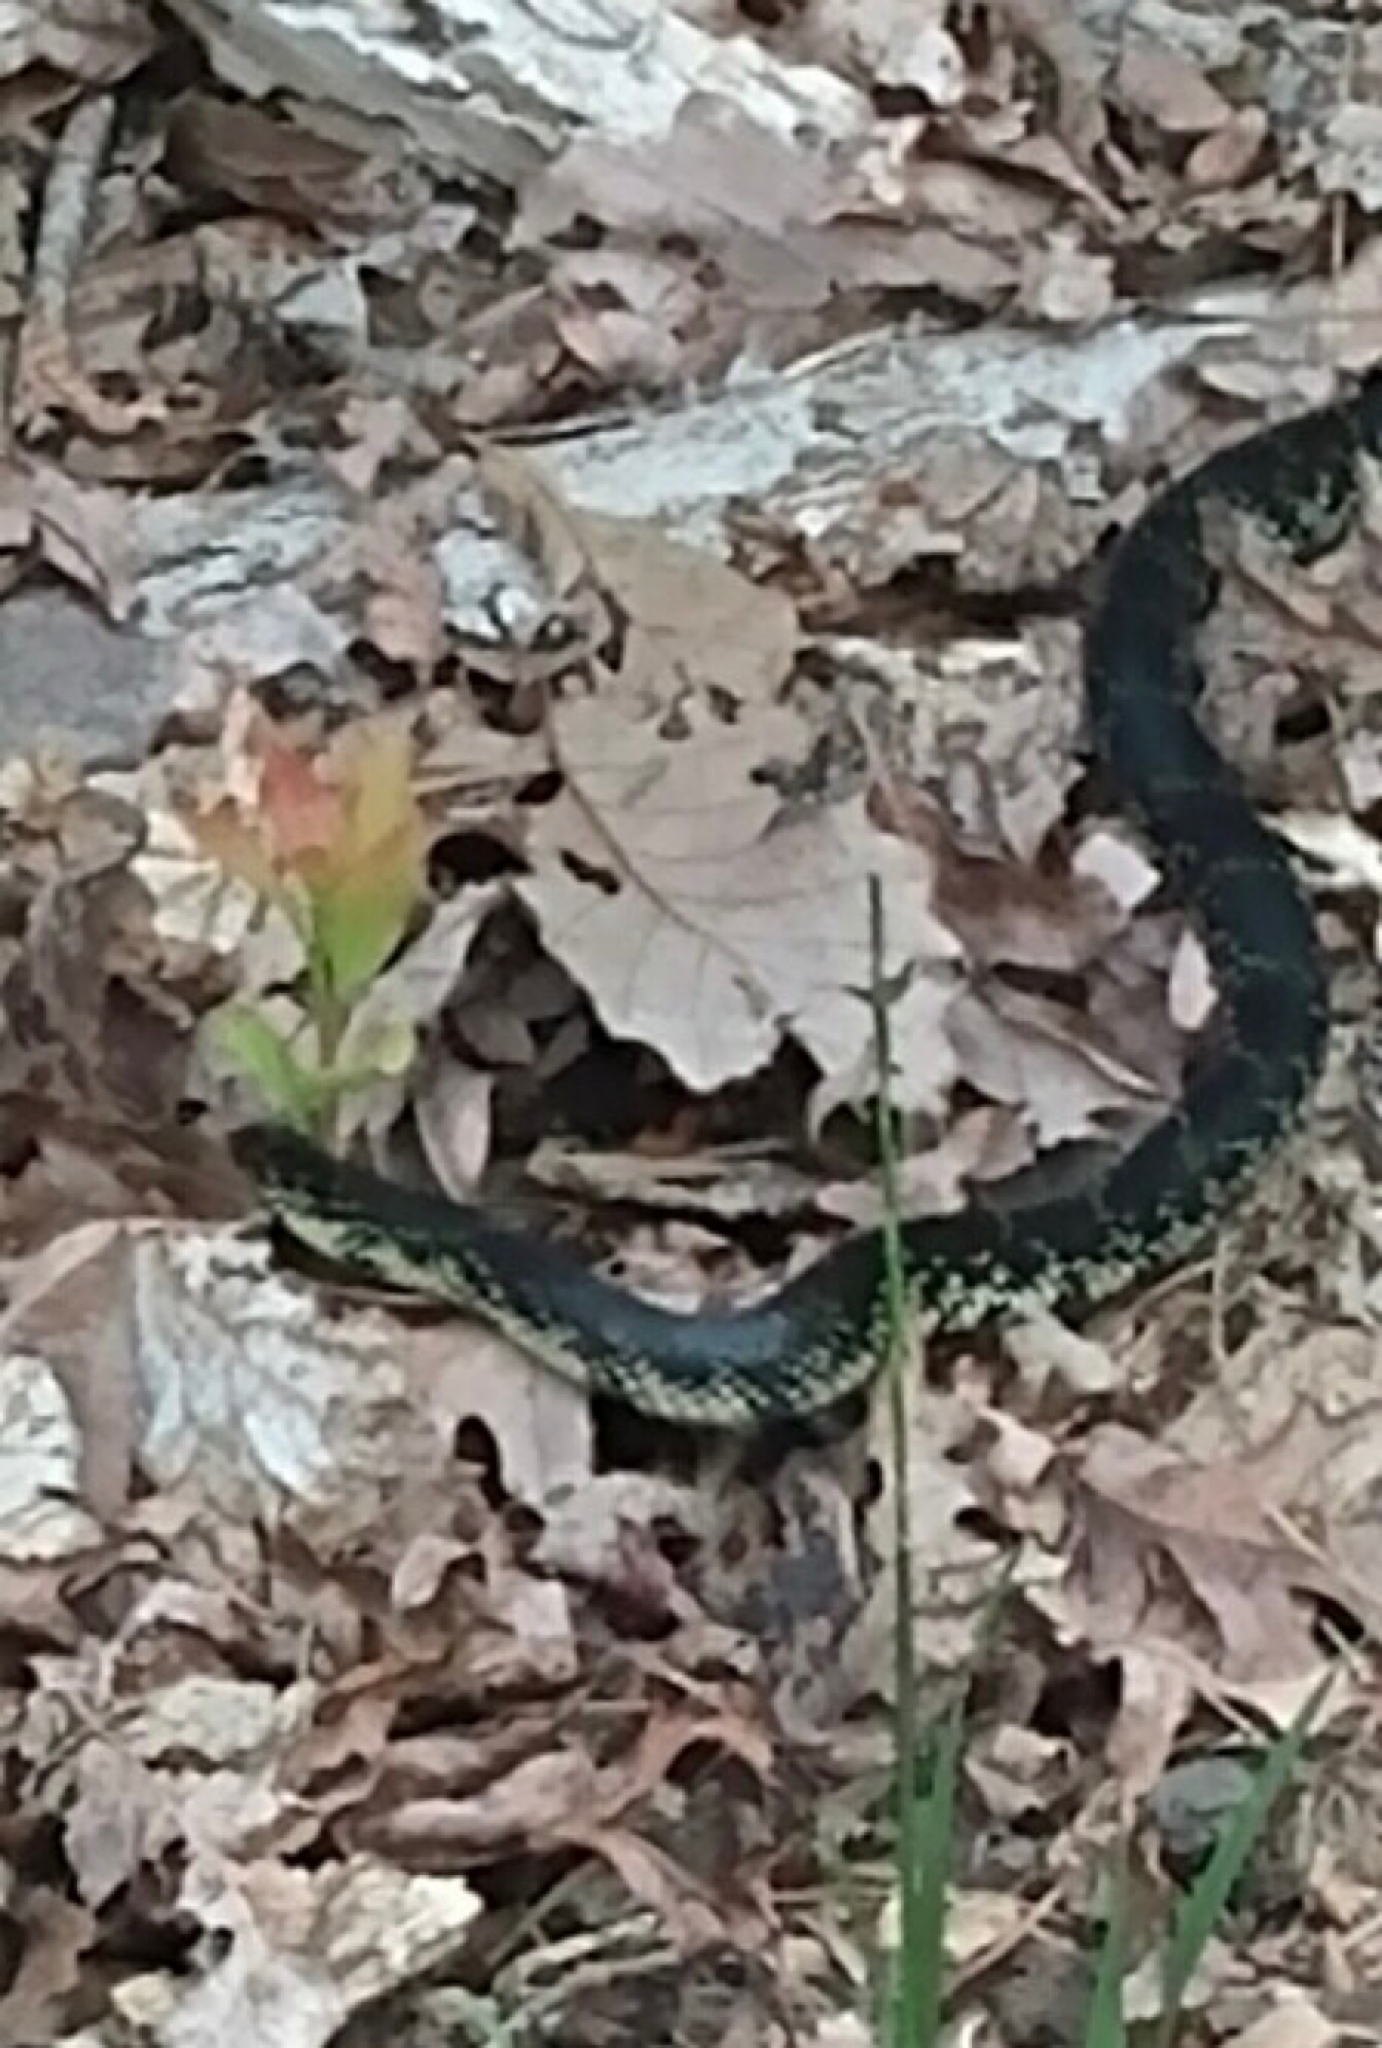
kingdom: Animalia
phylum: Chordata
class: Squamata
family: Colubridae
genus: Lampropeltis
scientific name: Lampropeltis nigra
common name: Black kingsnake
